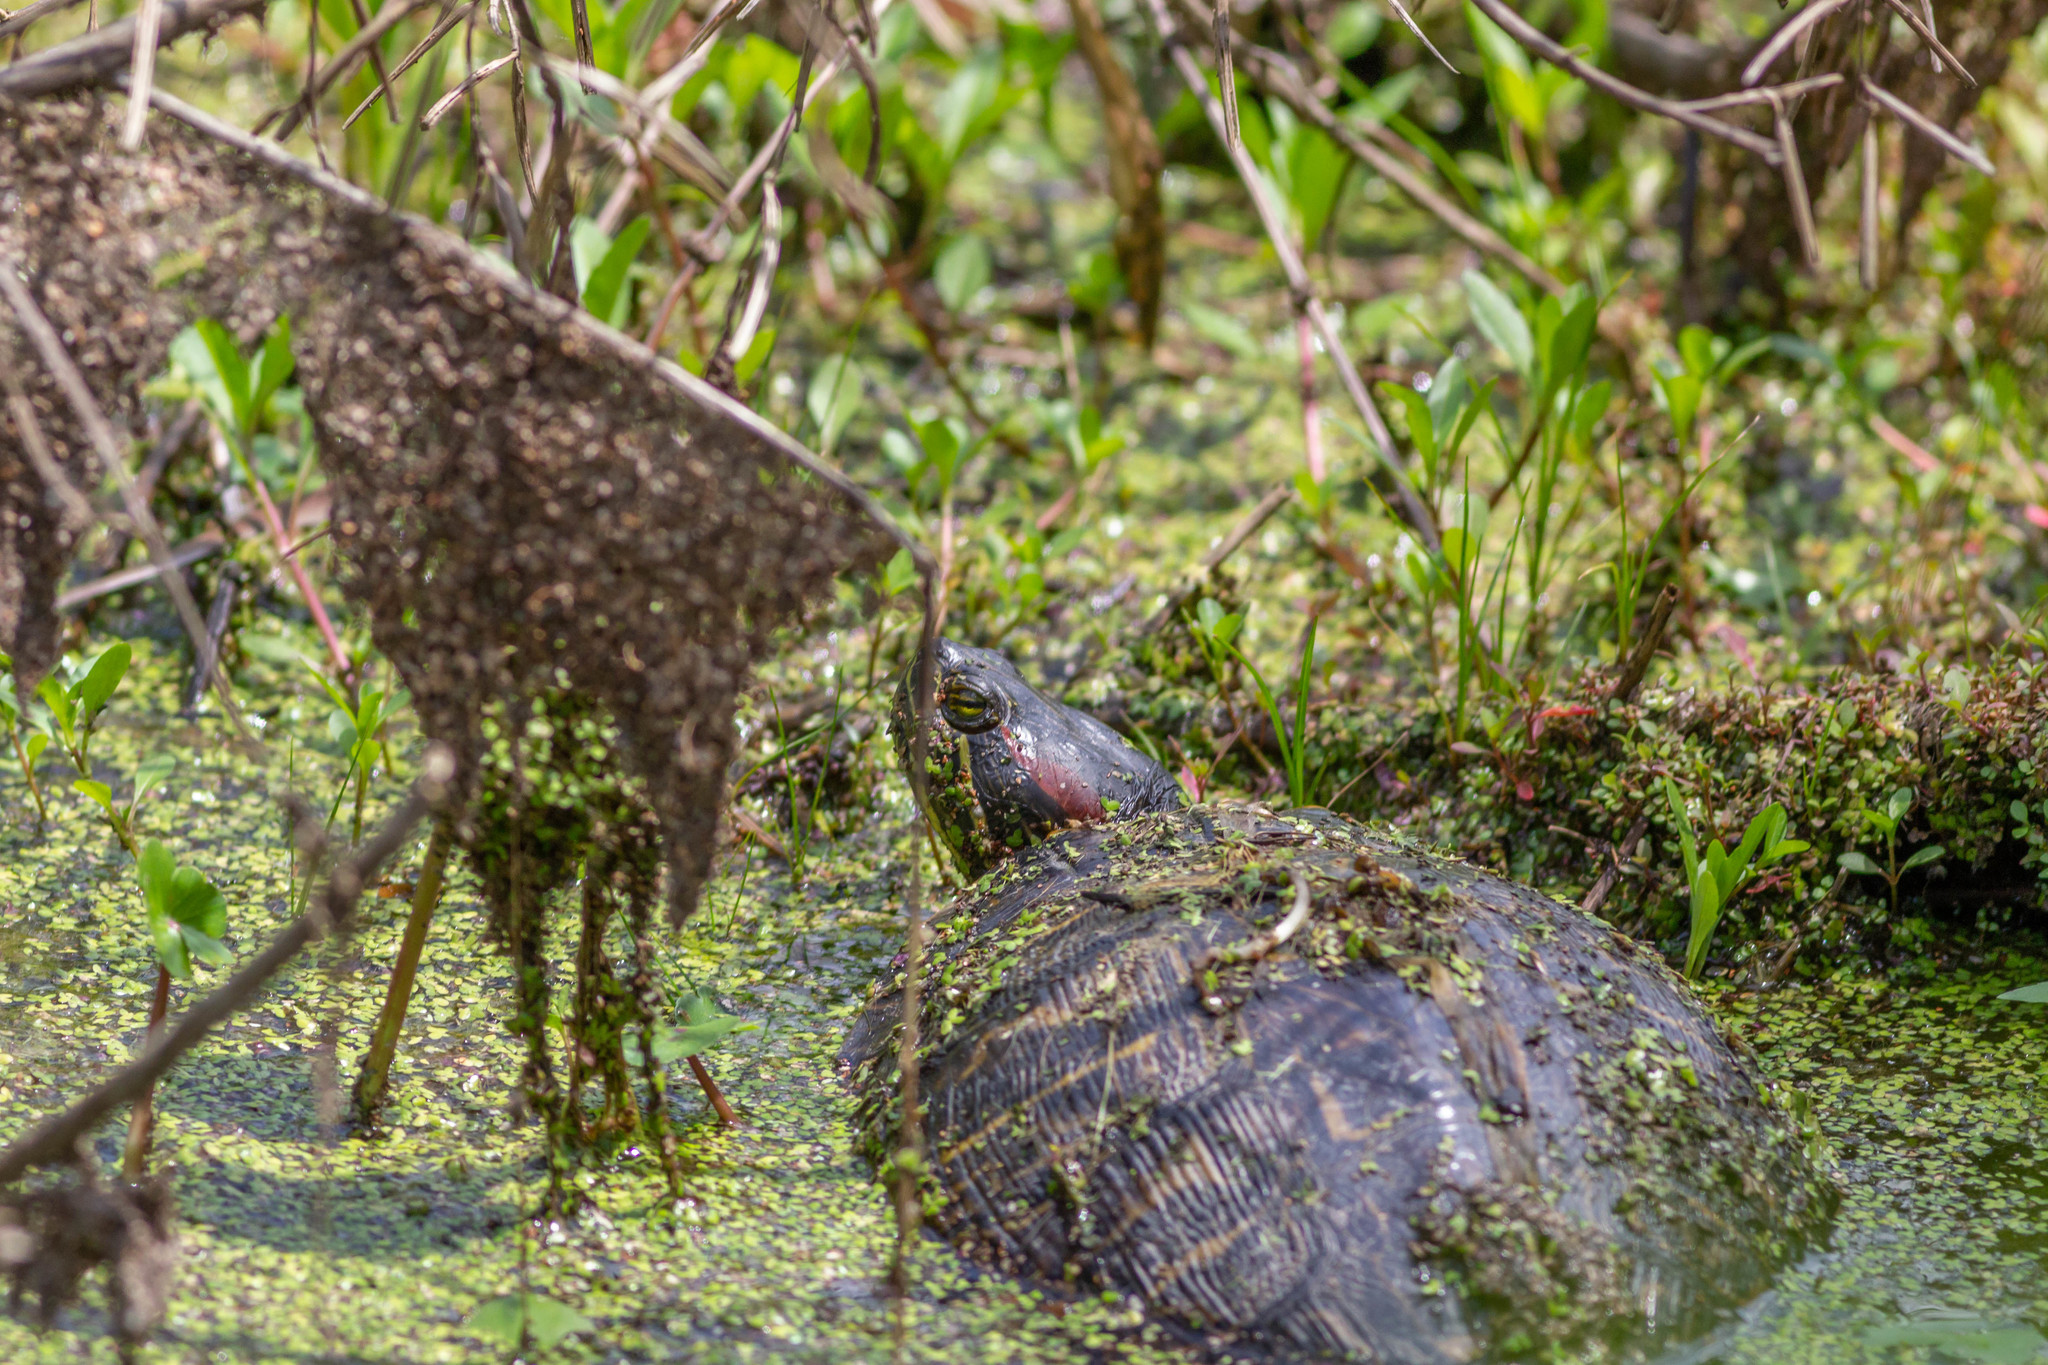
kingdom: Animalia
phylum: Chordata
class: Testudines
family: Emydidae
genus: Trachemys
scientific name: Trachemys scripta
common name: Slider
